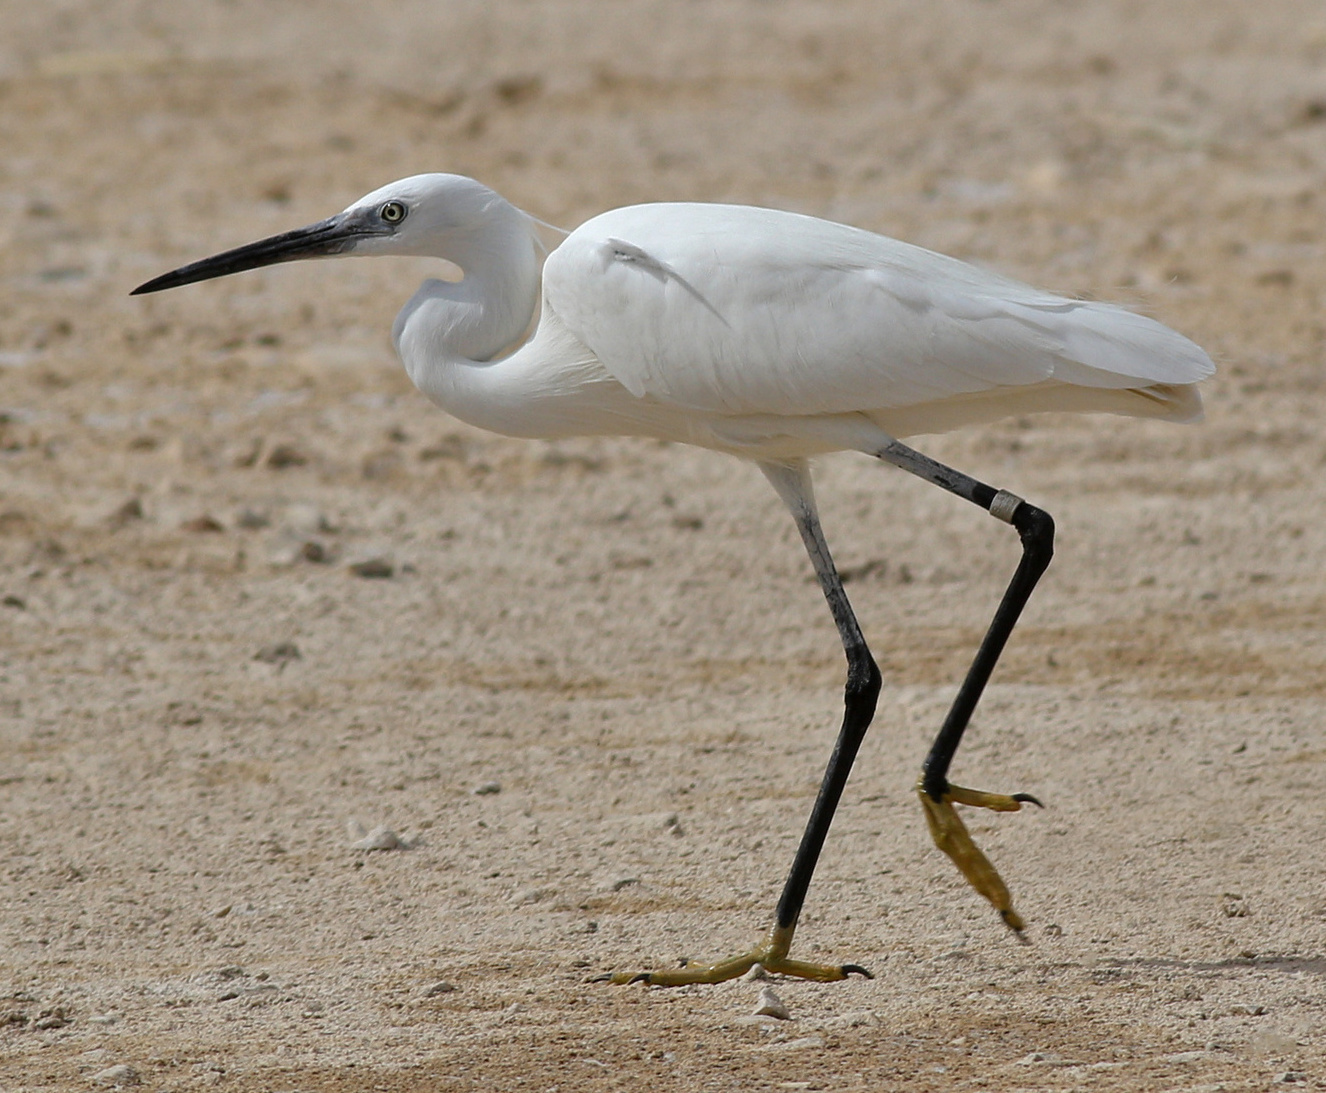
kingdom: Animalia
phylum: Chordata
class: Aves
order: Pelecaniformes
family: Ardeidae
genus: Egretta
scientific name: Egretta garzetta
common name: Little egret
